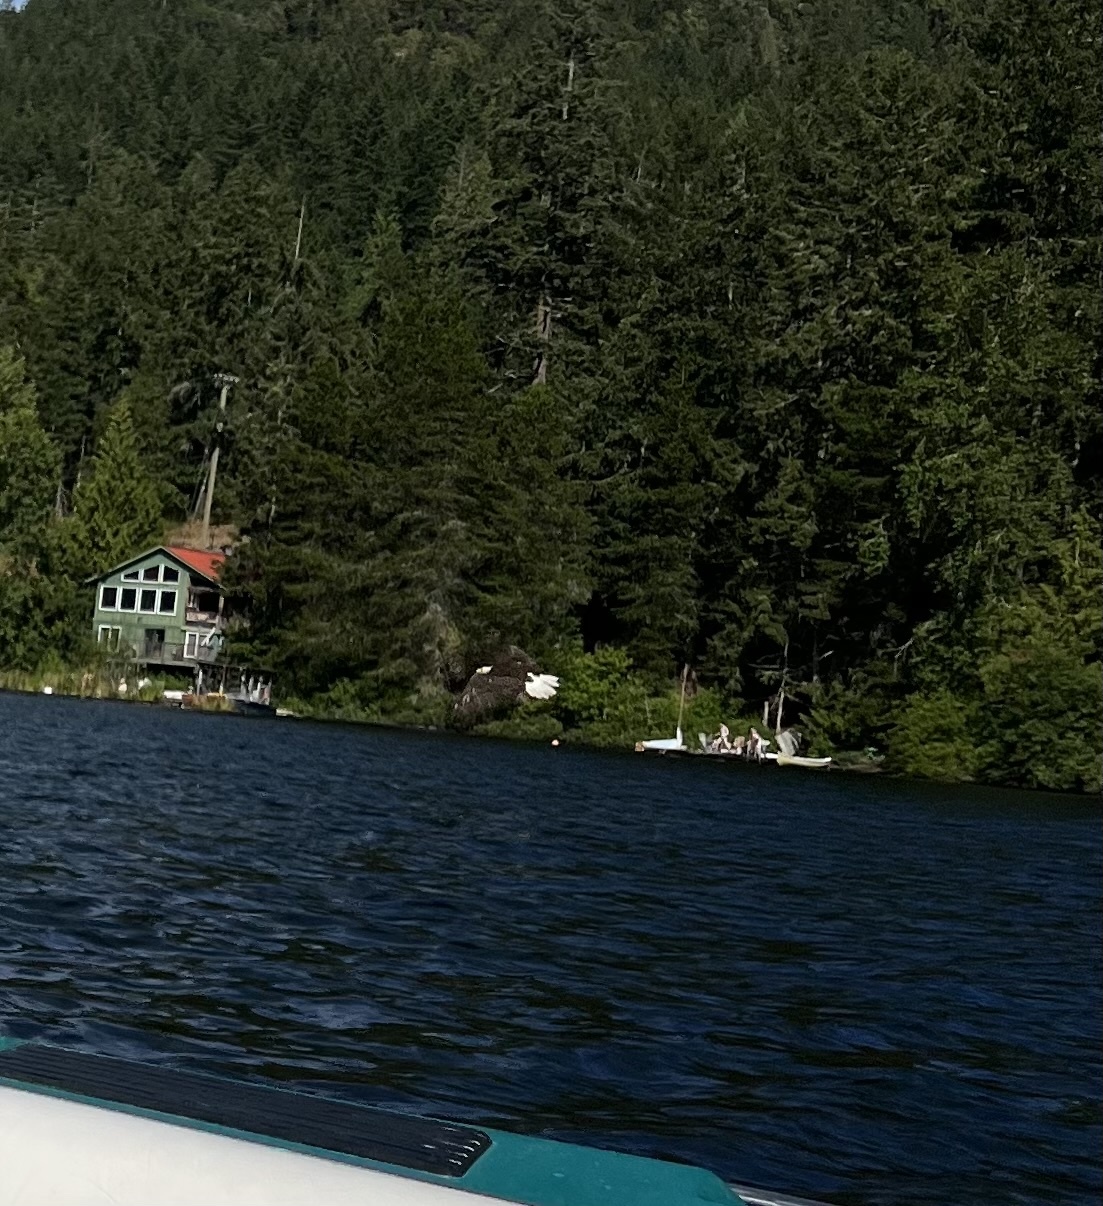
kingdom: Animalia
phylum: Chordata
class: Aves
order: Accipitriformes
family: Accipitridae
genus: Haliaeetus
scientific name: Haliaeetus leucocephalus
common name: Bald eagle
